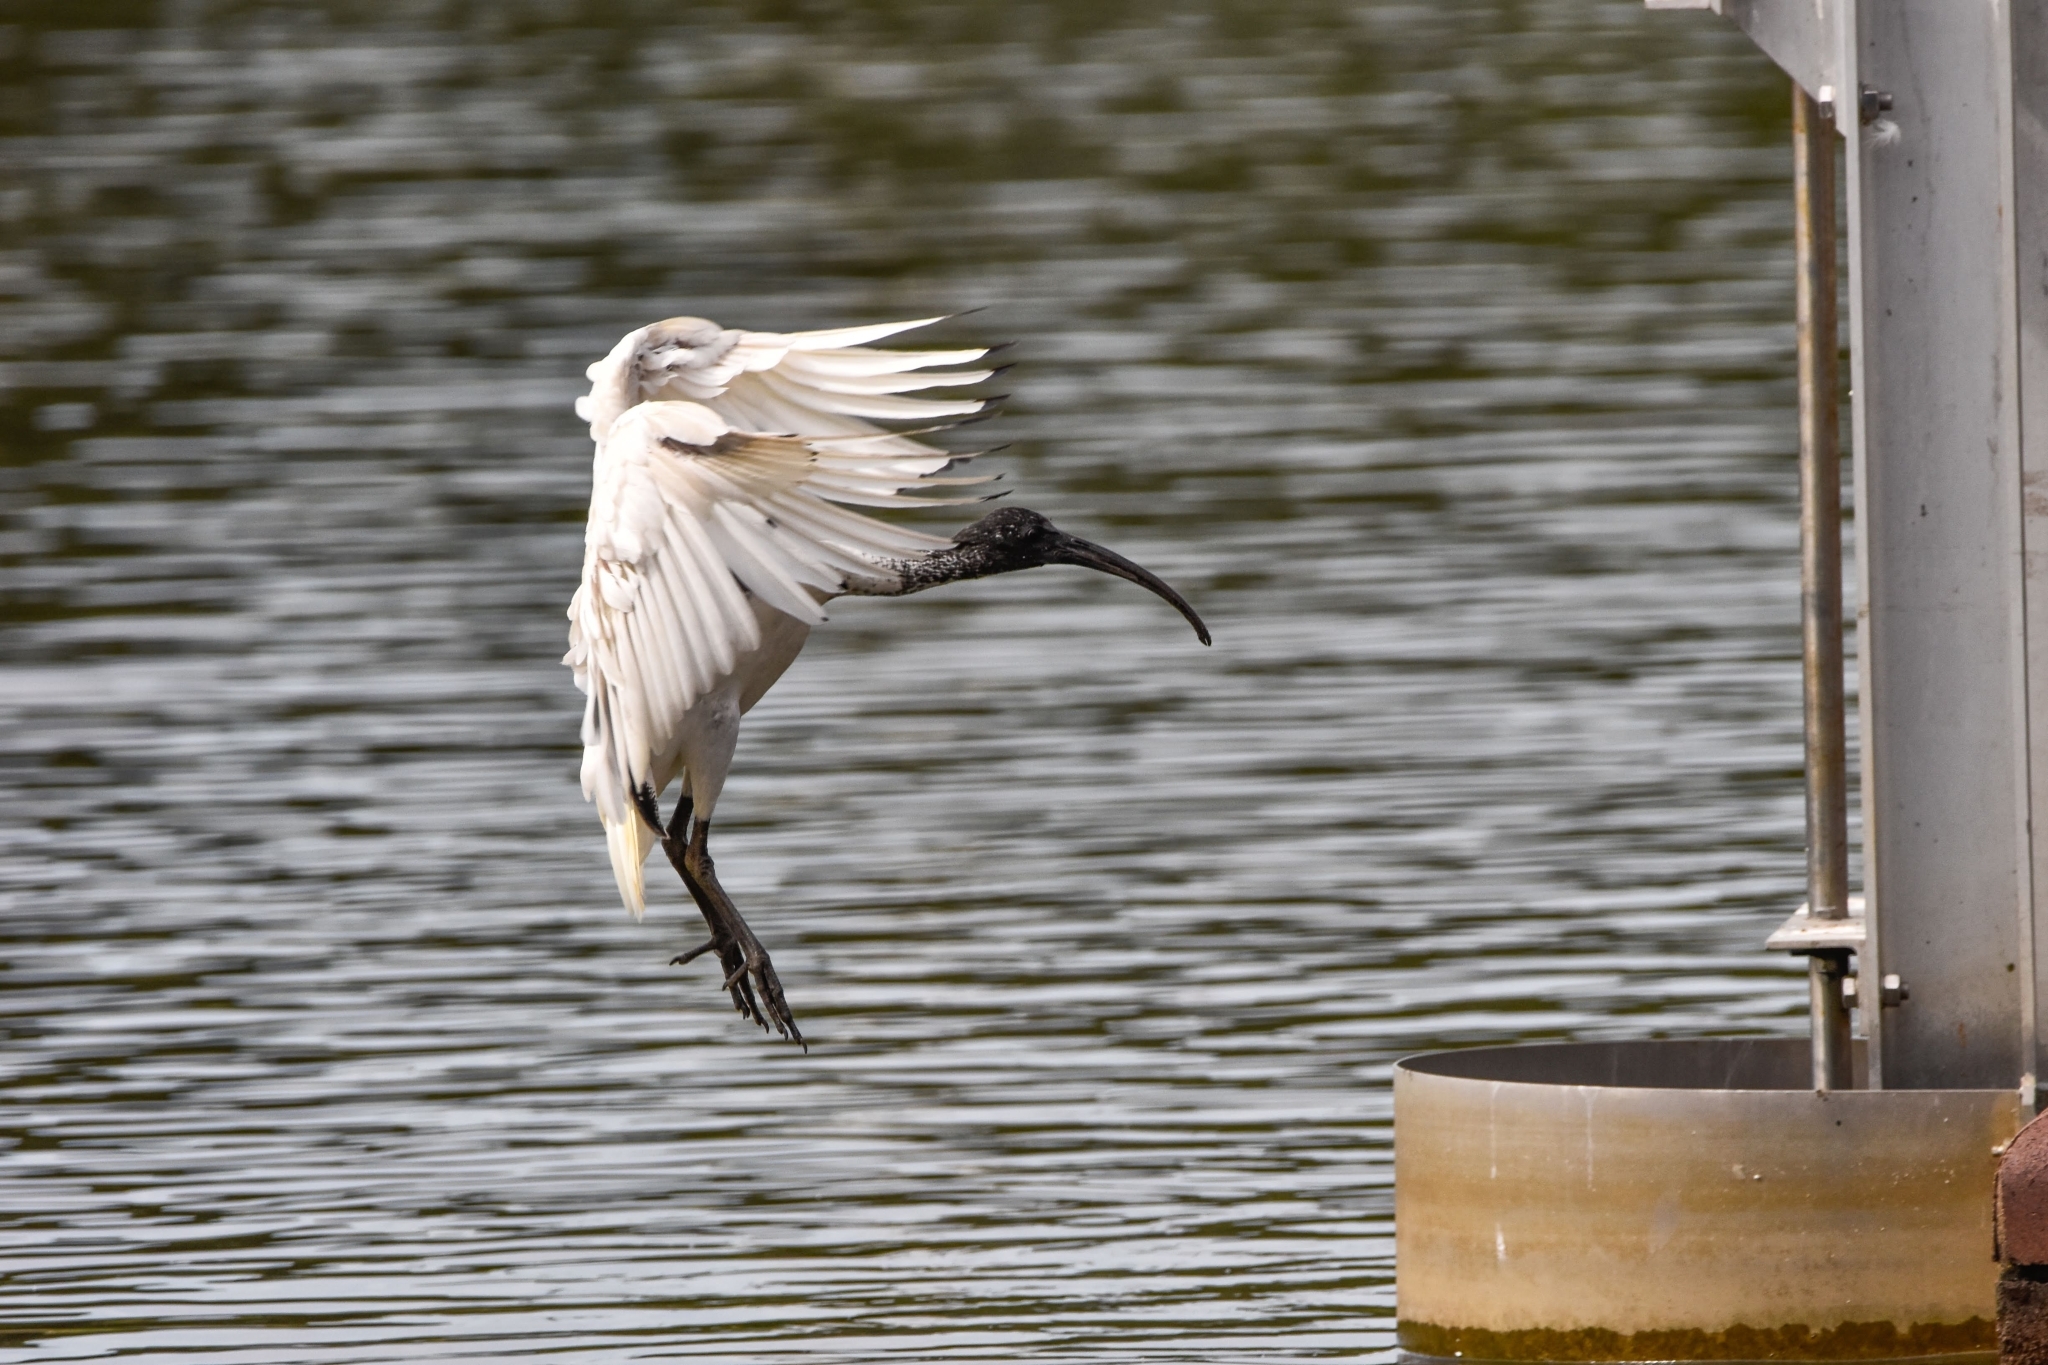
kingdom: Animalia
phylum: Chordata
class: Aves
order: Pelecaniformes
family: Threskiornithidae
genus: Threskiornis
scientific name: Threskiornis molucca
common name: Australian white ibis
